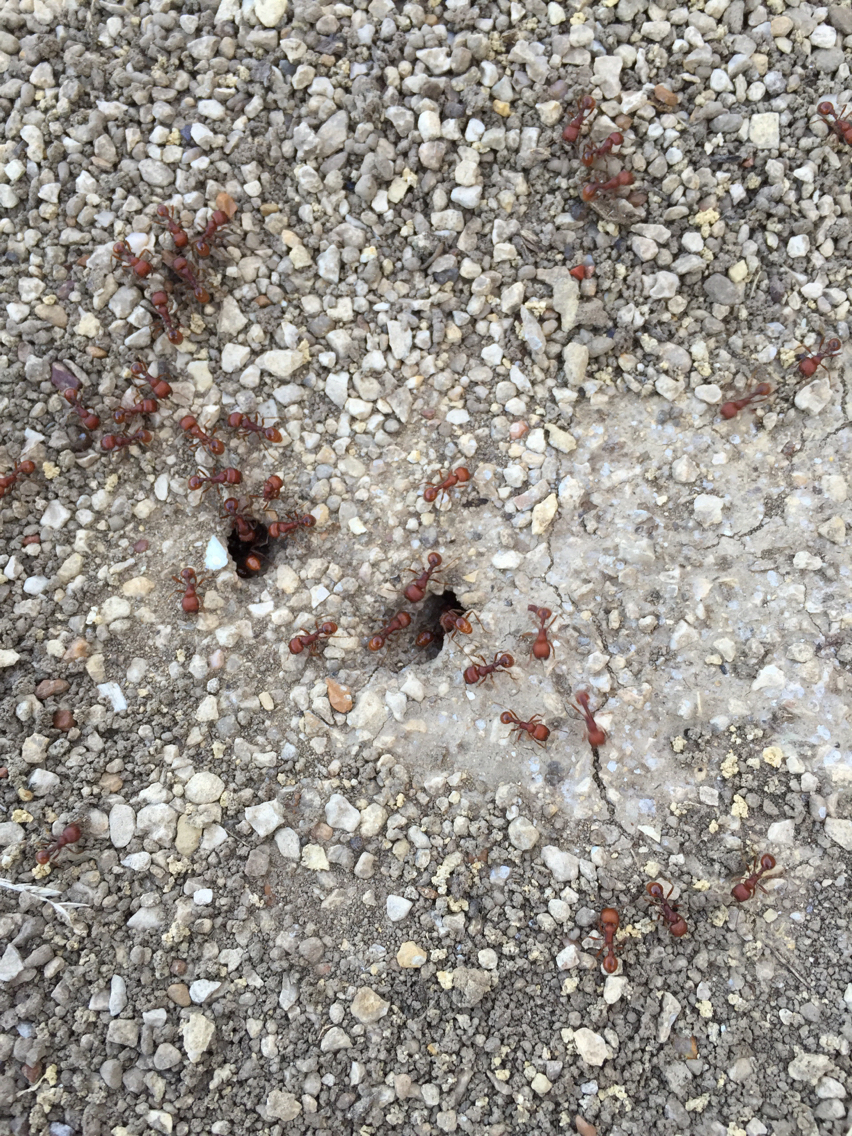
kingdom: Animalia
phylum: Arthropoda
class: Insecta
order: Hymenoptera
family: Formicidae
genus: Pogonomyrmex
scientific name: Pogonomyrmex barbatus
